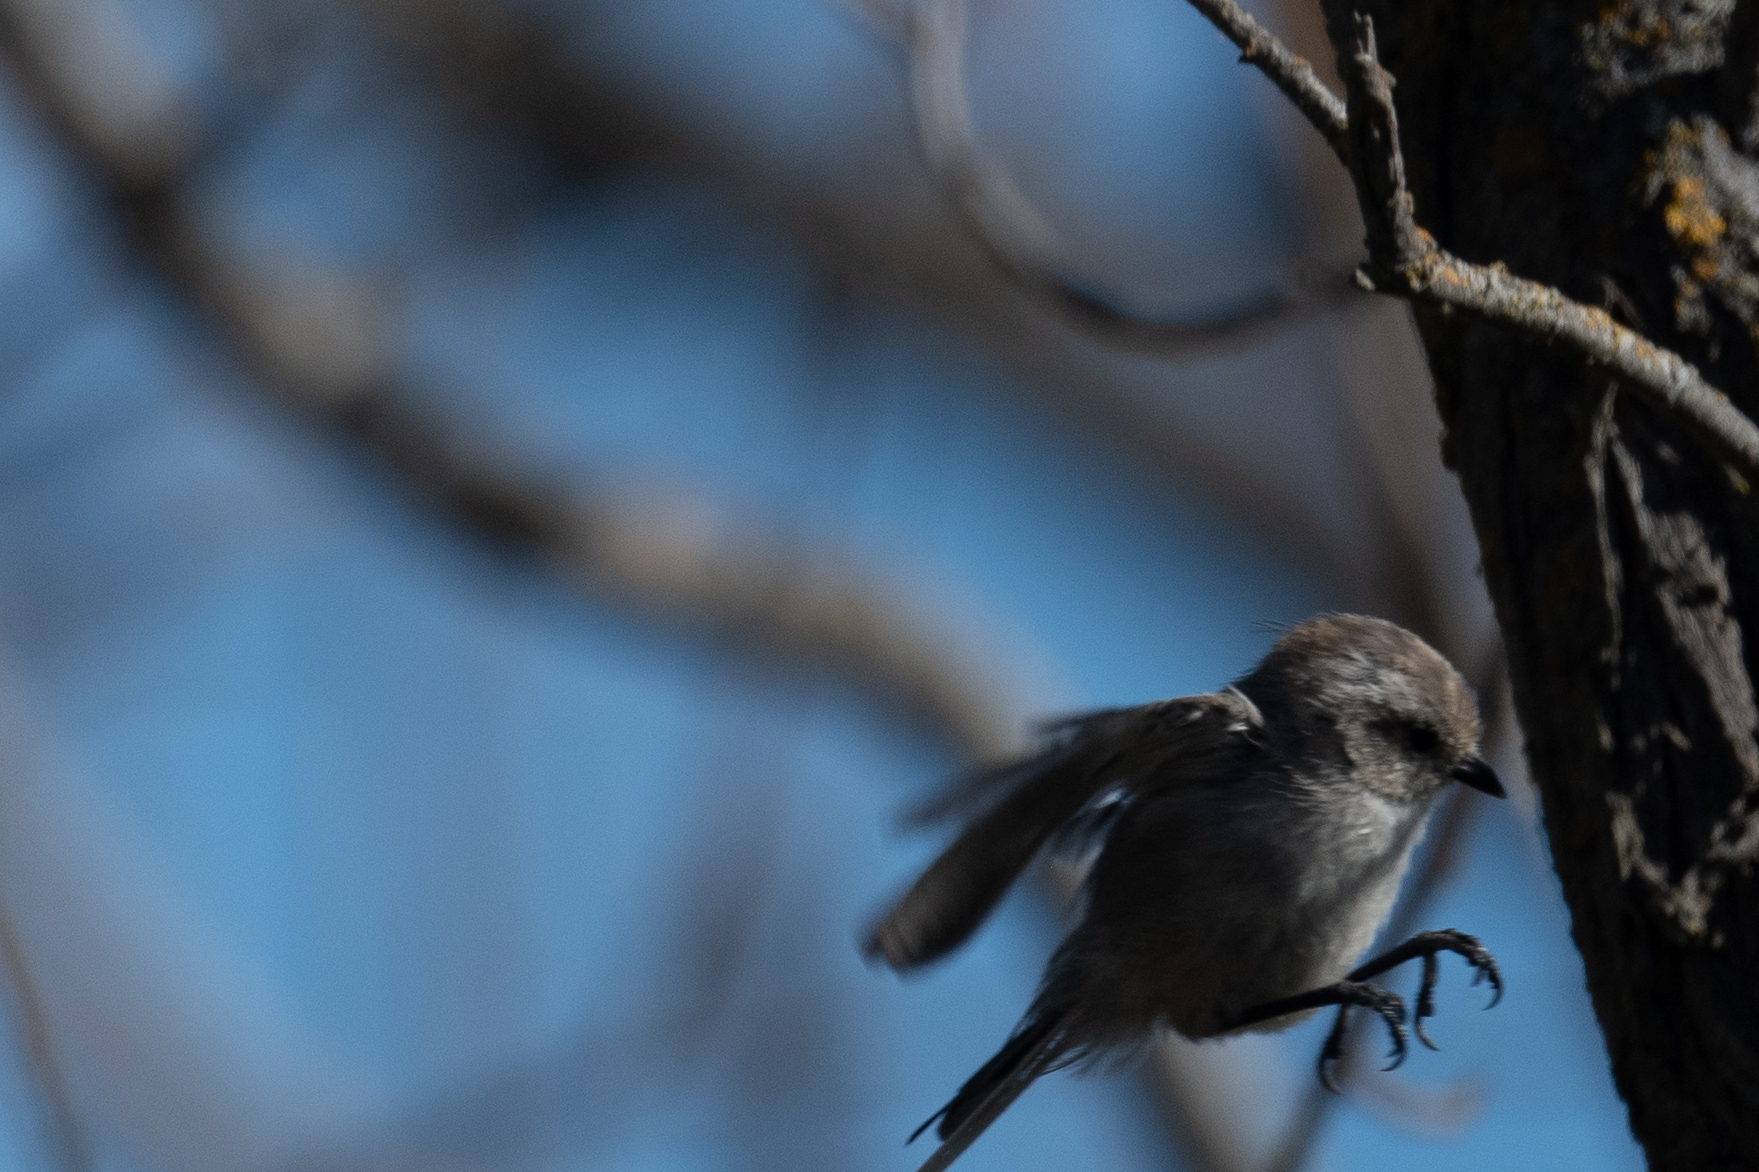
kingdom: Animalia
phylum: Chordata
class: Aves
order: Passeriformes
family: Aegithalidae
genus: Psaltriparus
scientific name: Psaltriparus minimus
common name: American bushtit
